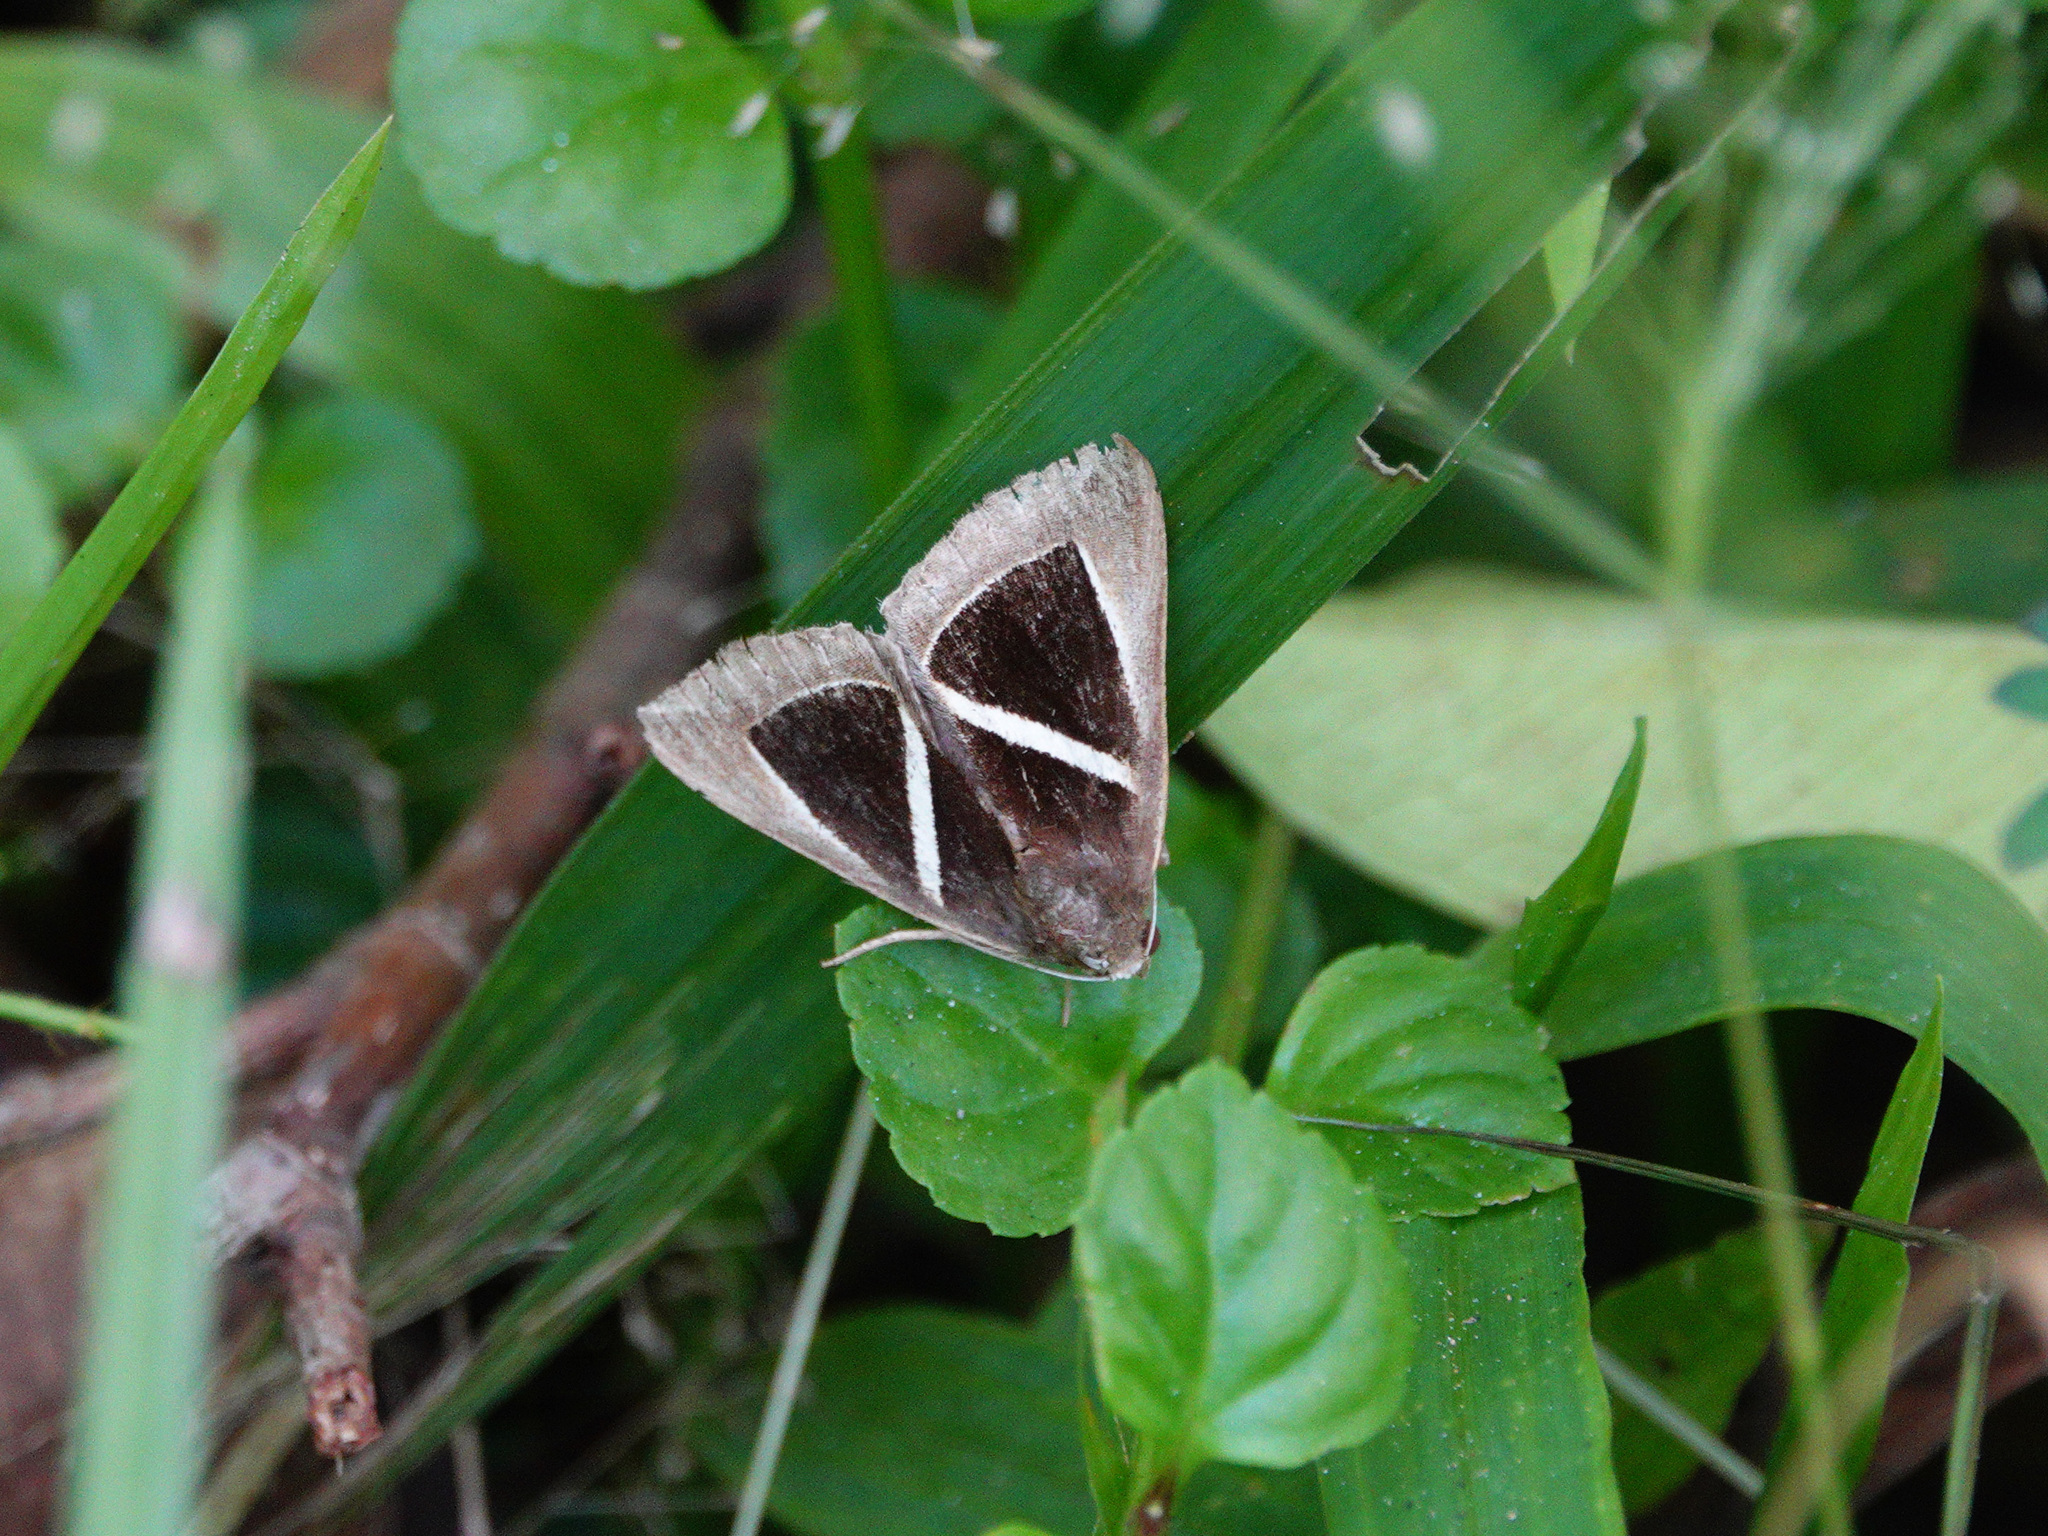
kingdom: Animalia
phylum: Arthropoda
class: Insecta
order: Lepidoptera
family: Erebidae
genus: Chalciope
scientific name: Chalciope mygdon
